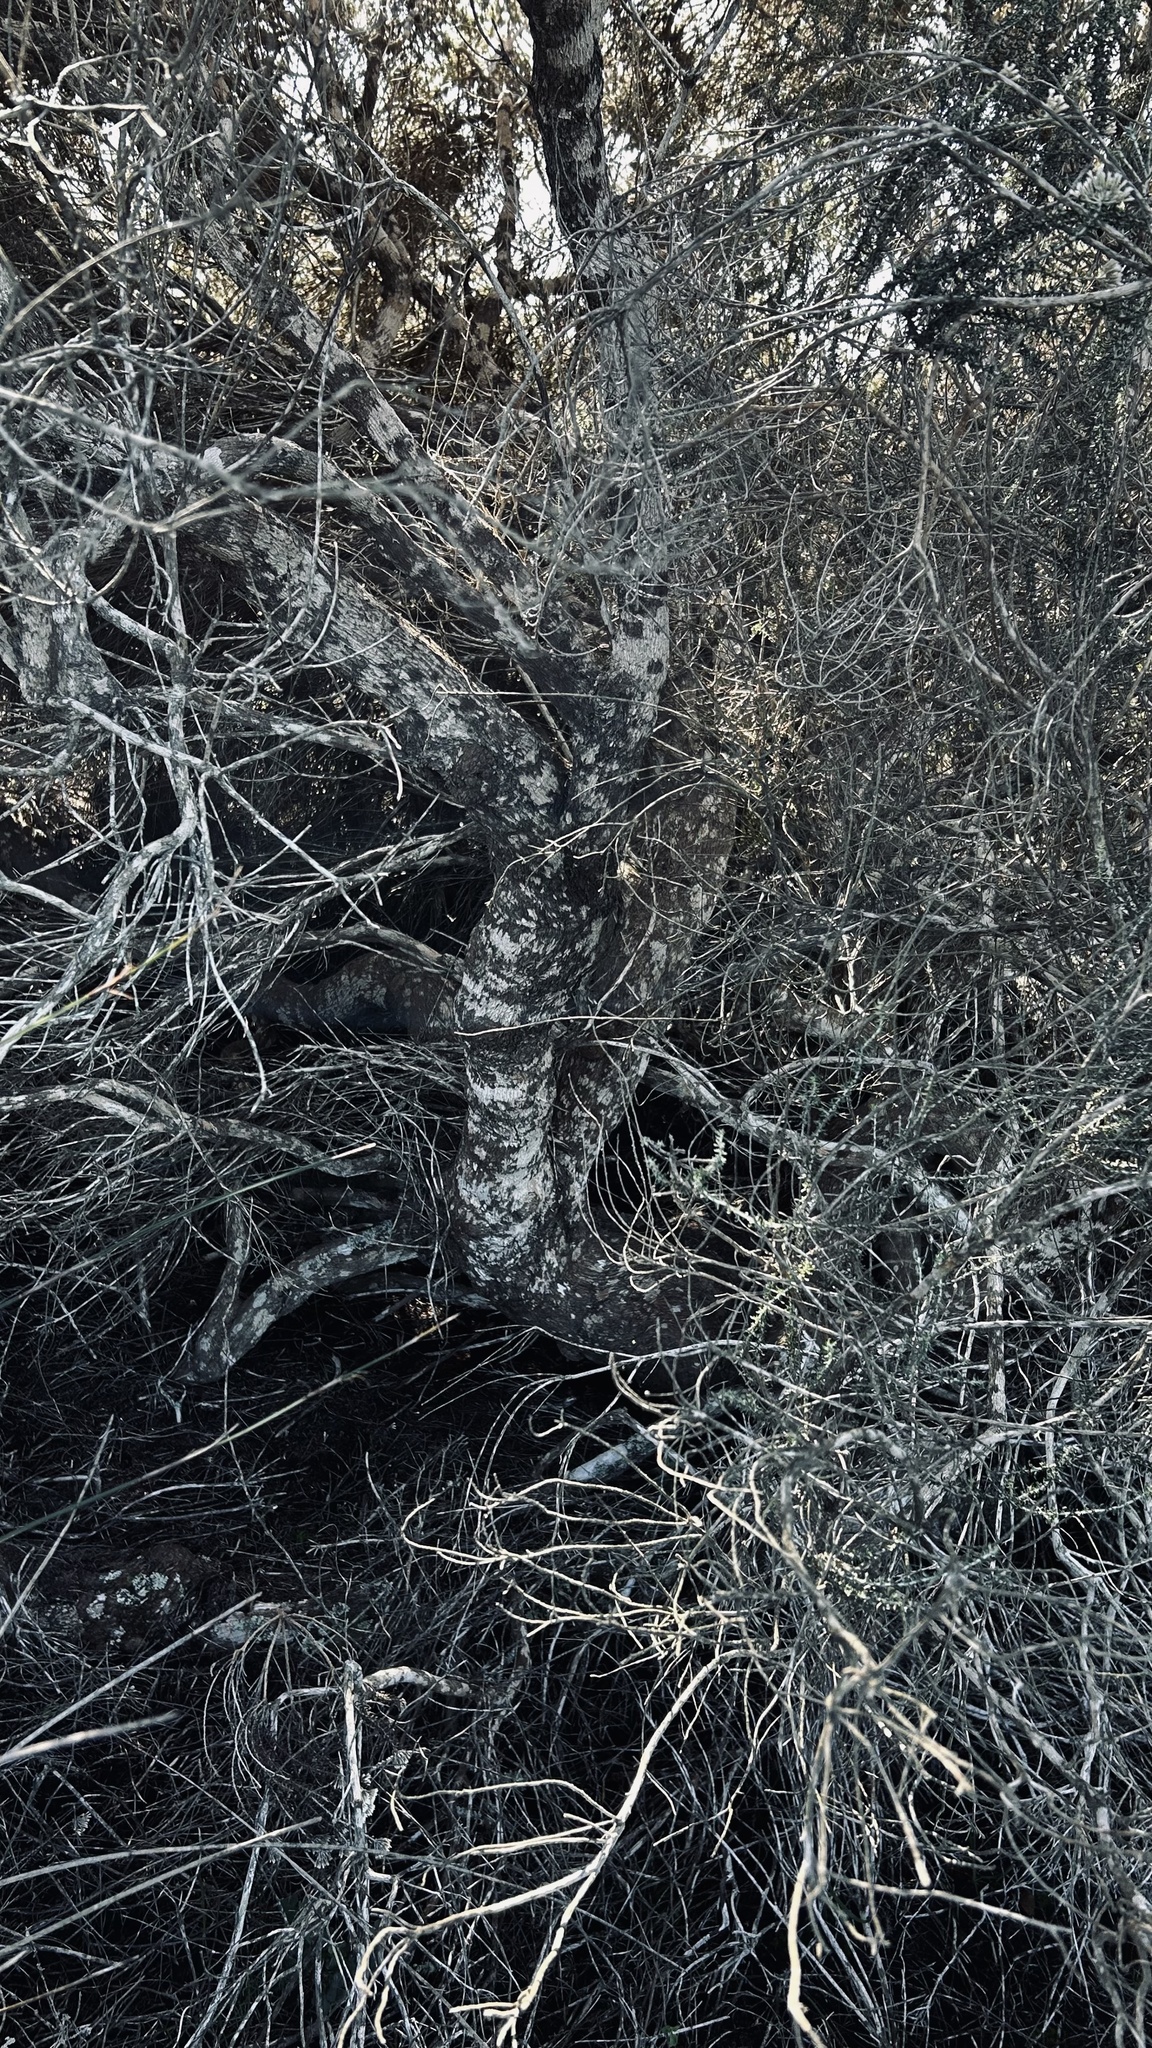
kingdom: Plantae
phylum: Tracheophyta
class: Magnoliopsida
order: Asterales
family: Asteraceae
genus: Metalasia
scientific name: Metalasia muricata
